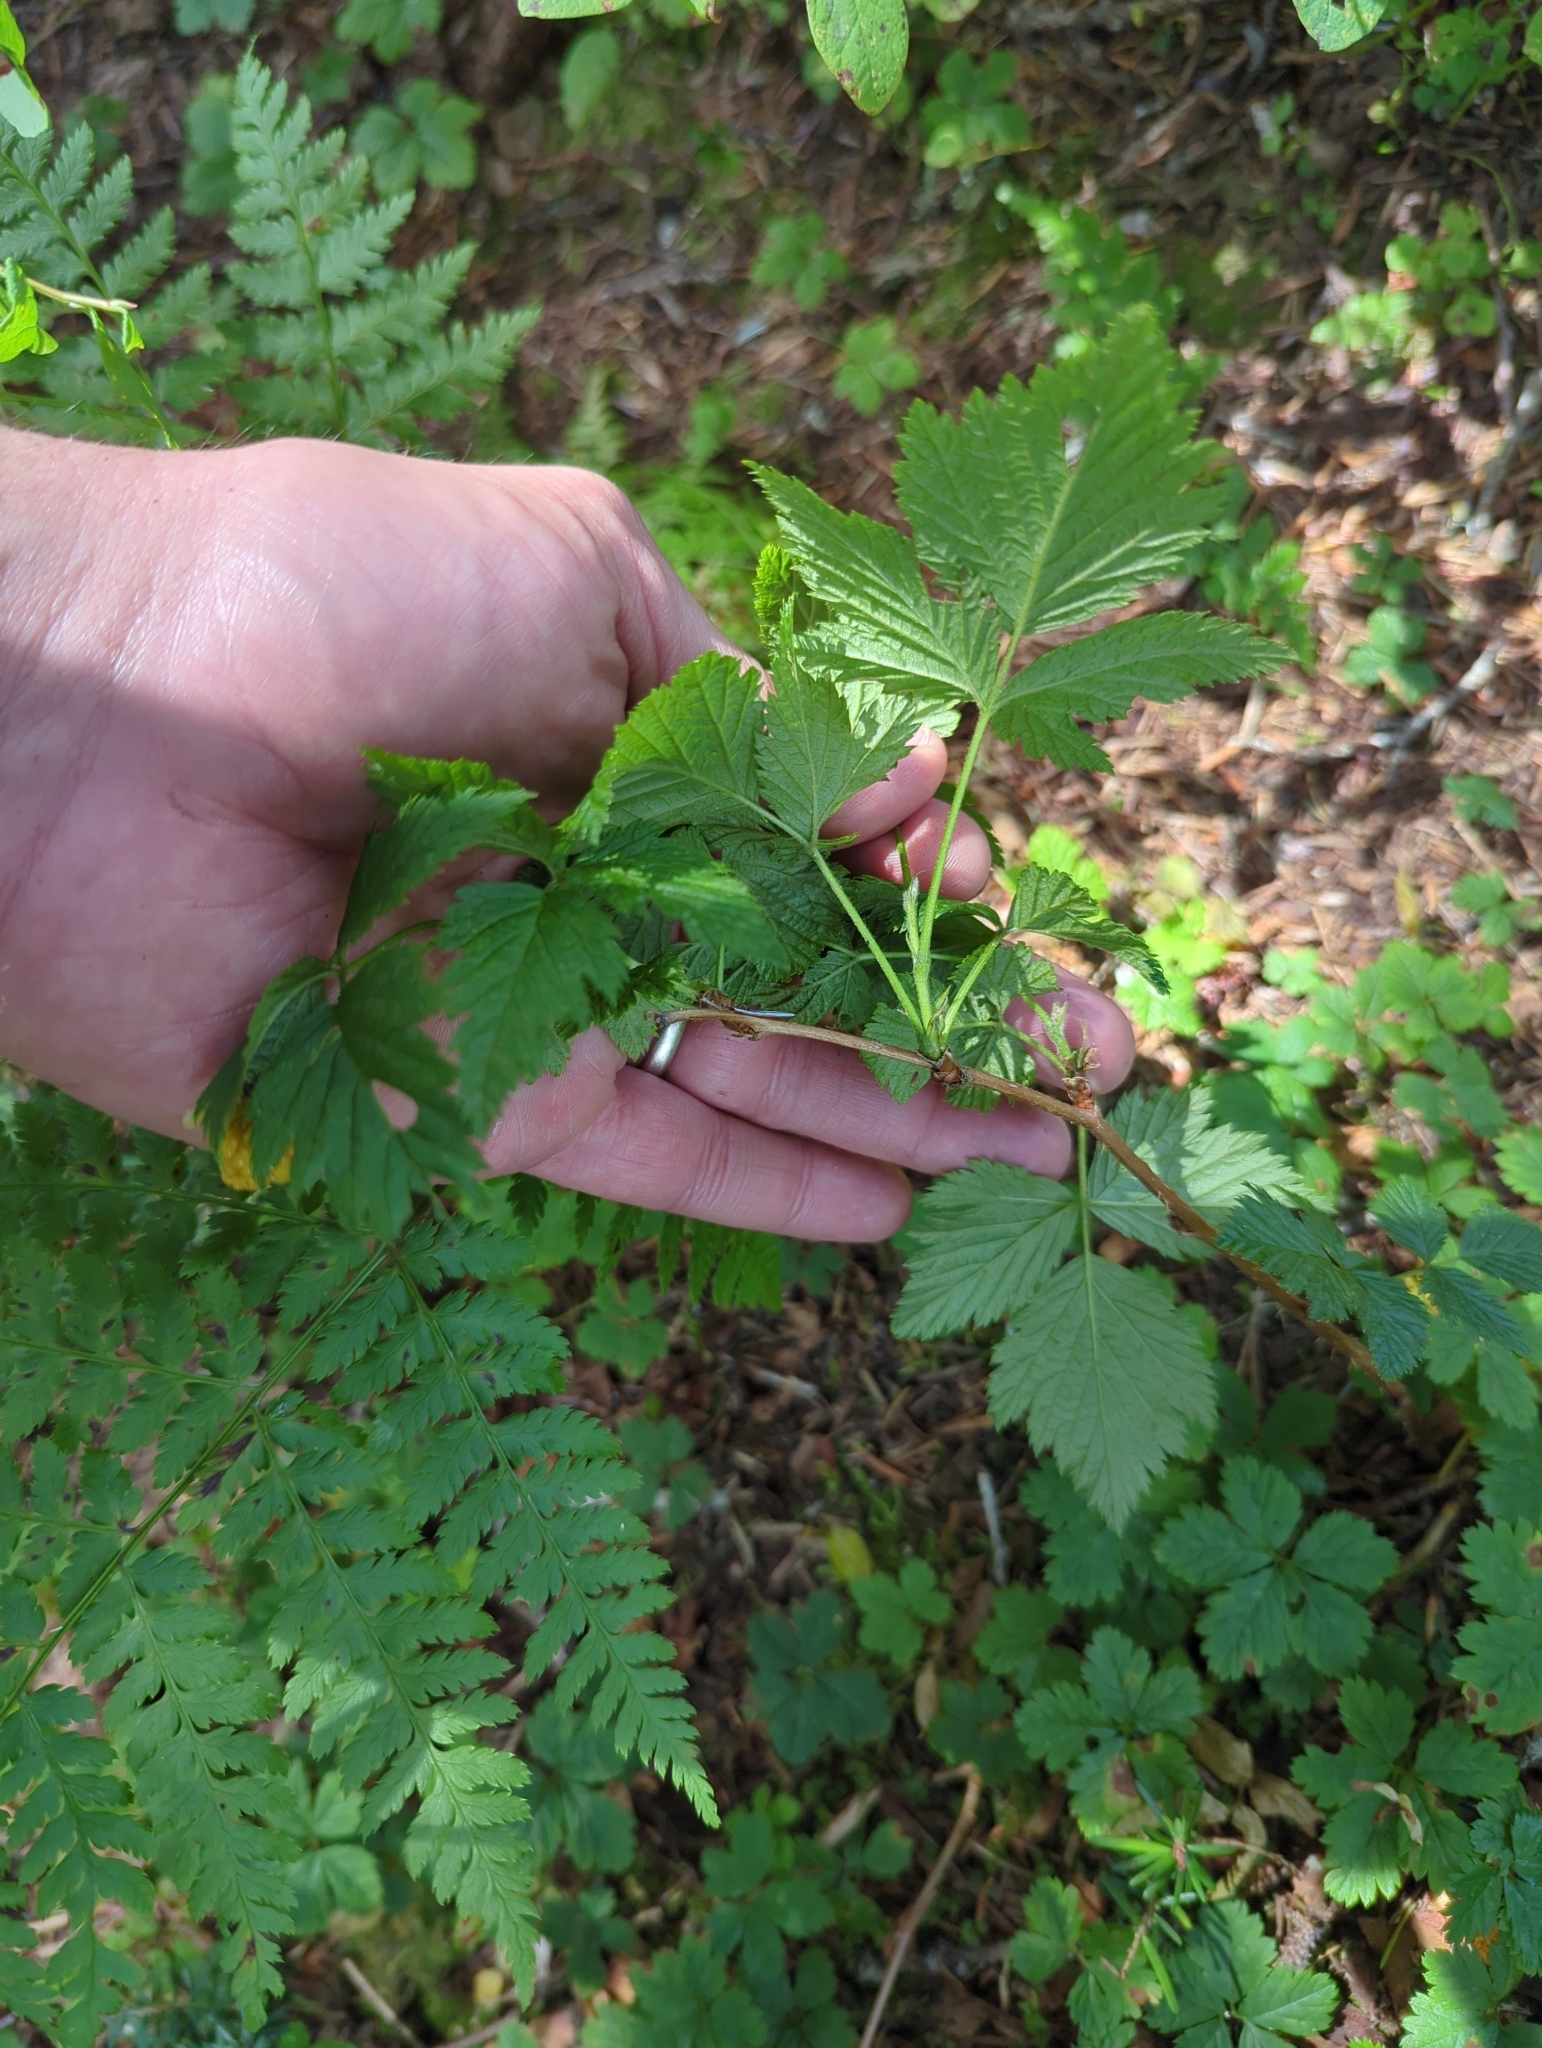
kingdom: Plantae
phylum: Tracheophyta
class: Magnoliopsida
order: Rosales
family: Rosaceae
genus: Rubus
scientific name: Rubus spectabilis
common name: Salmonberry
